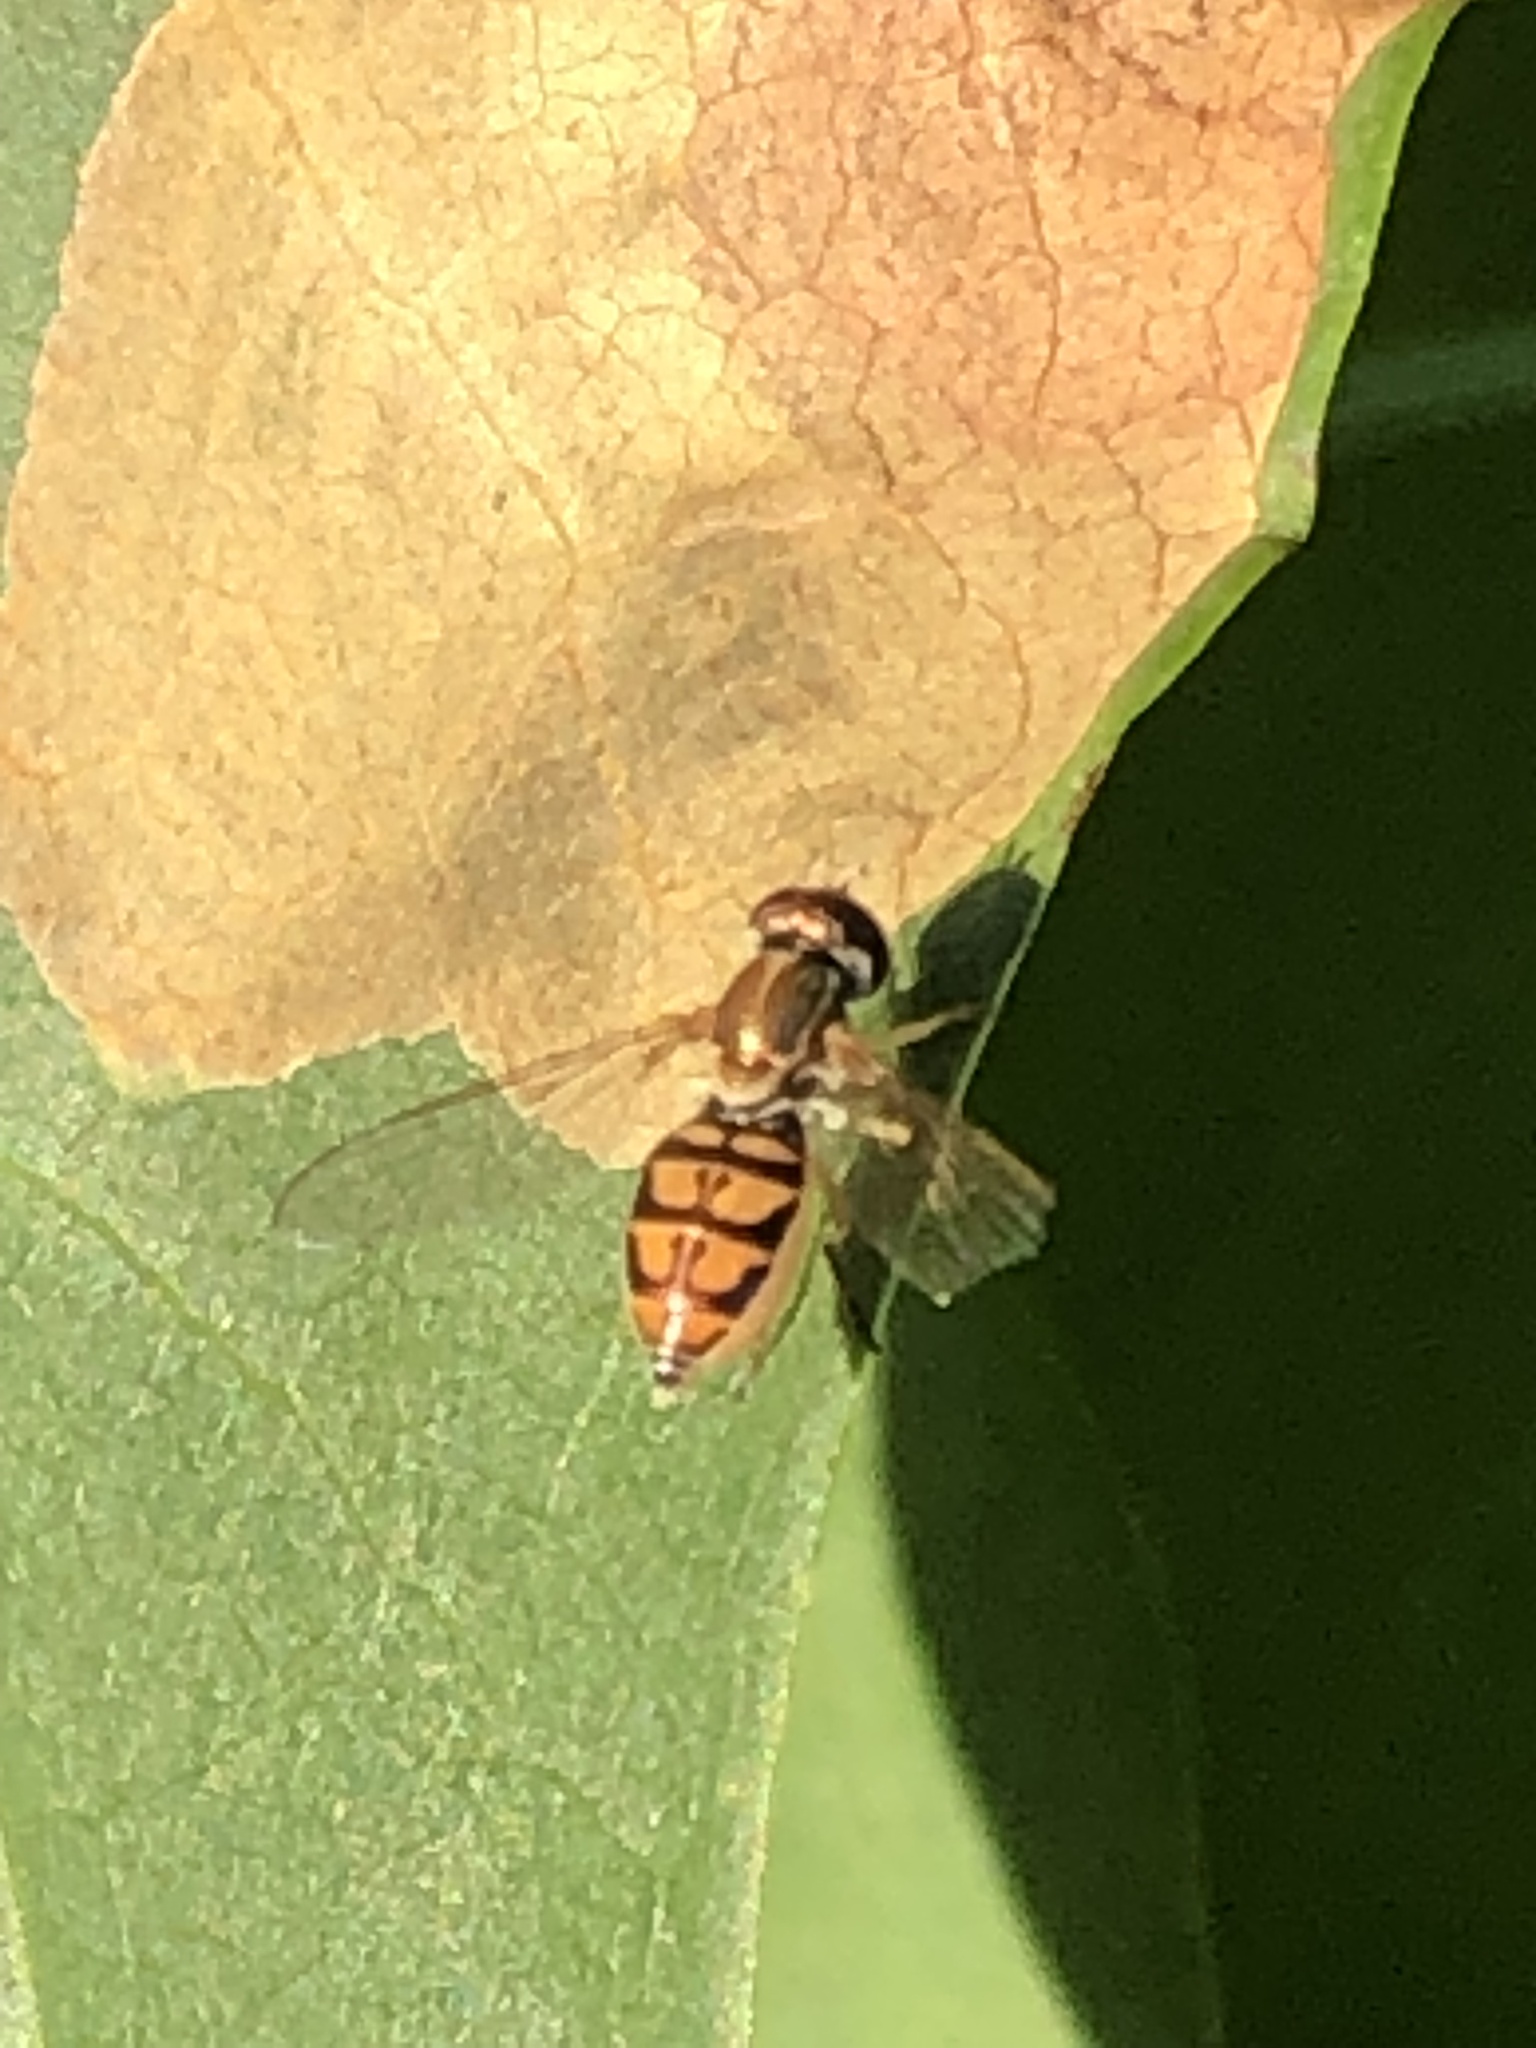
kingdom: Animalia
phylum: Arthropoda
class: Insecta
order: Diptera
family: Syrphidae
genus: Toxomerus
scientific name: Toxomerus marginatus
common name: Syrphid fly
